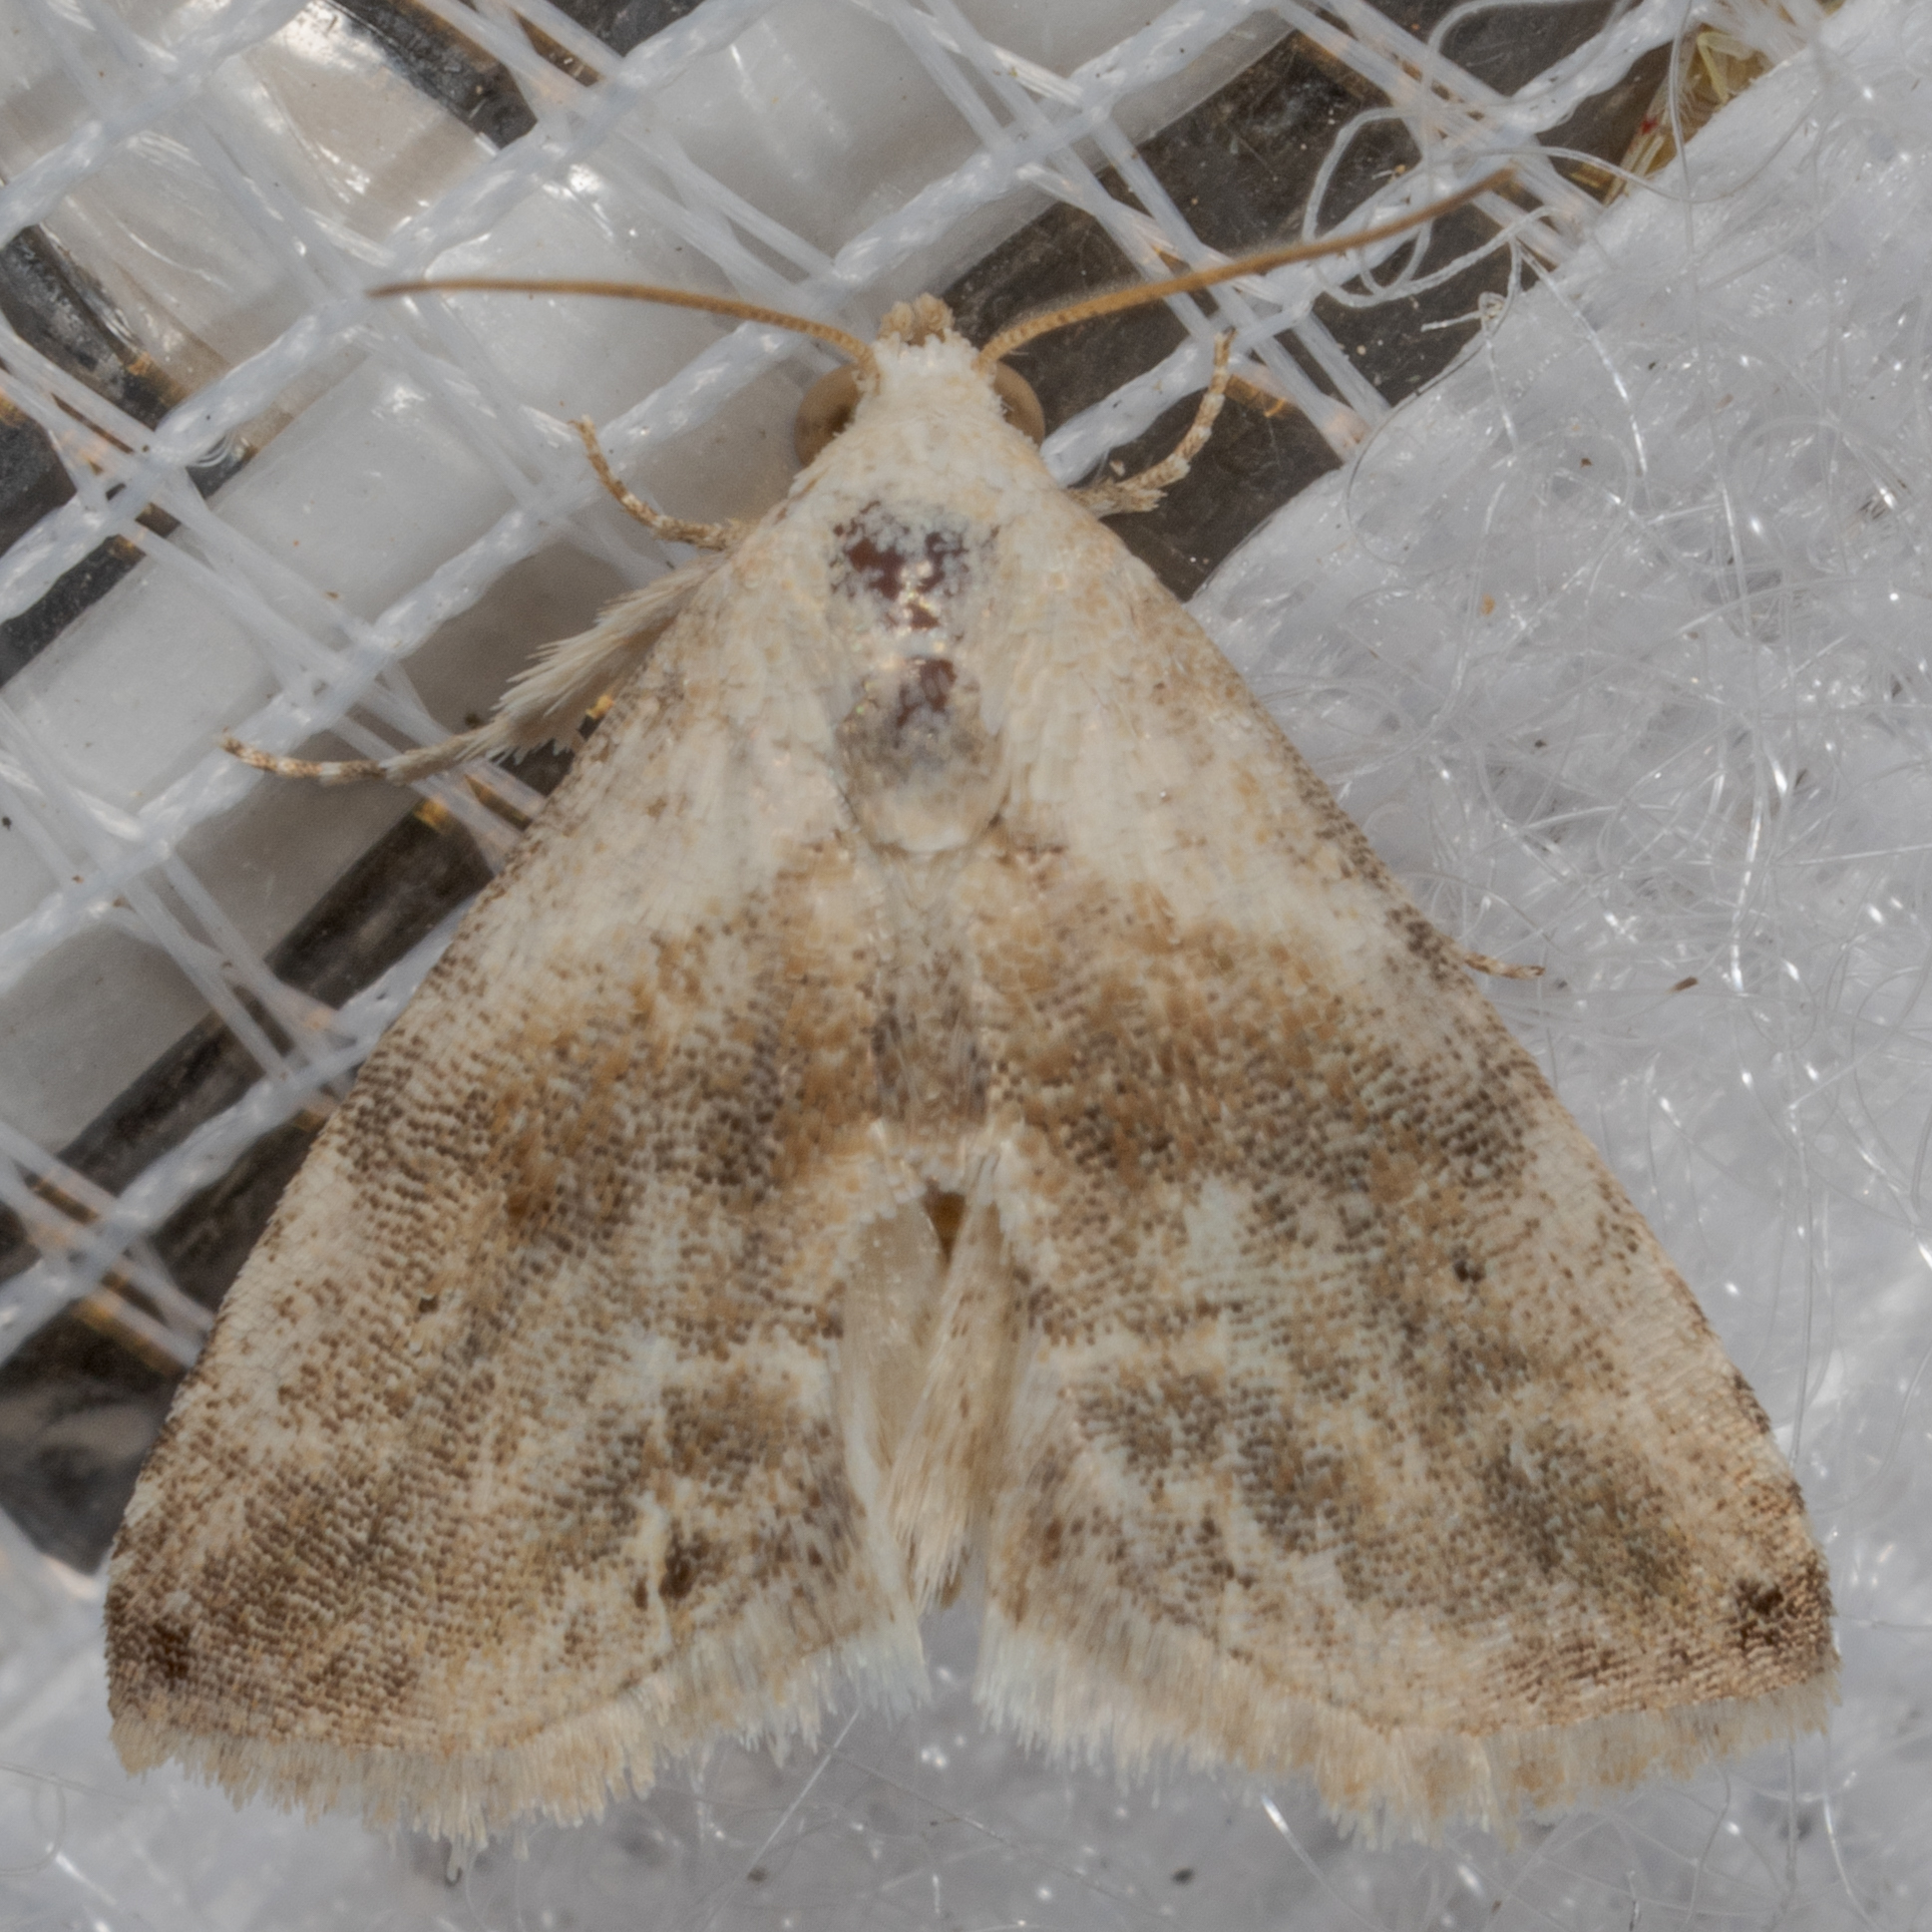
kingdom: Animalia
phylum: Arthropoda
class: Insecta
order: Lepidoptera
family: Noctuidae
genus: Eublemma
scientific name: Eublemma minima
